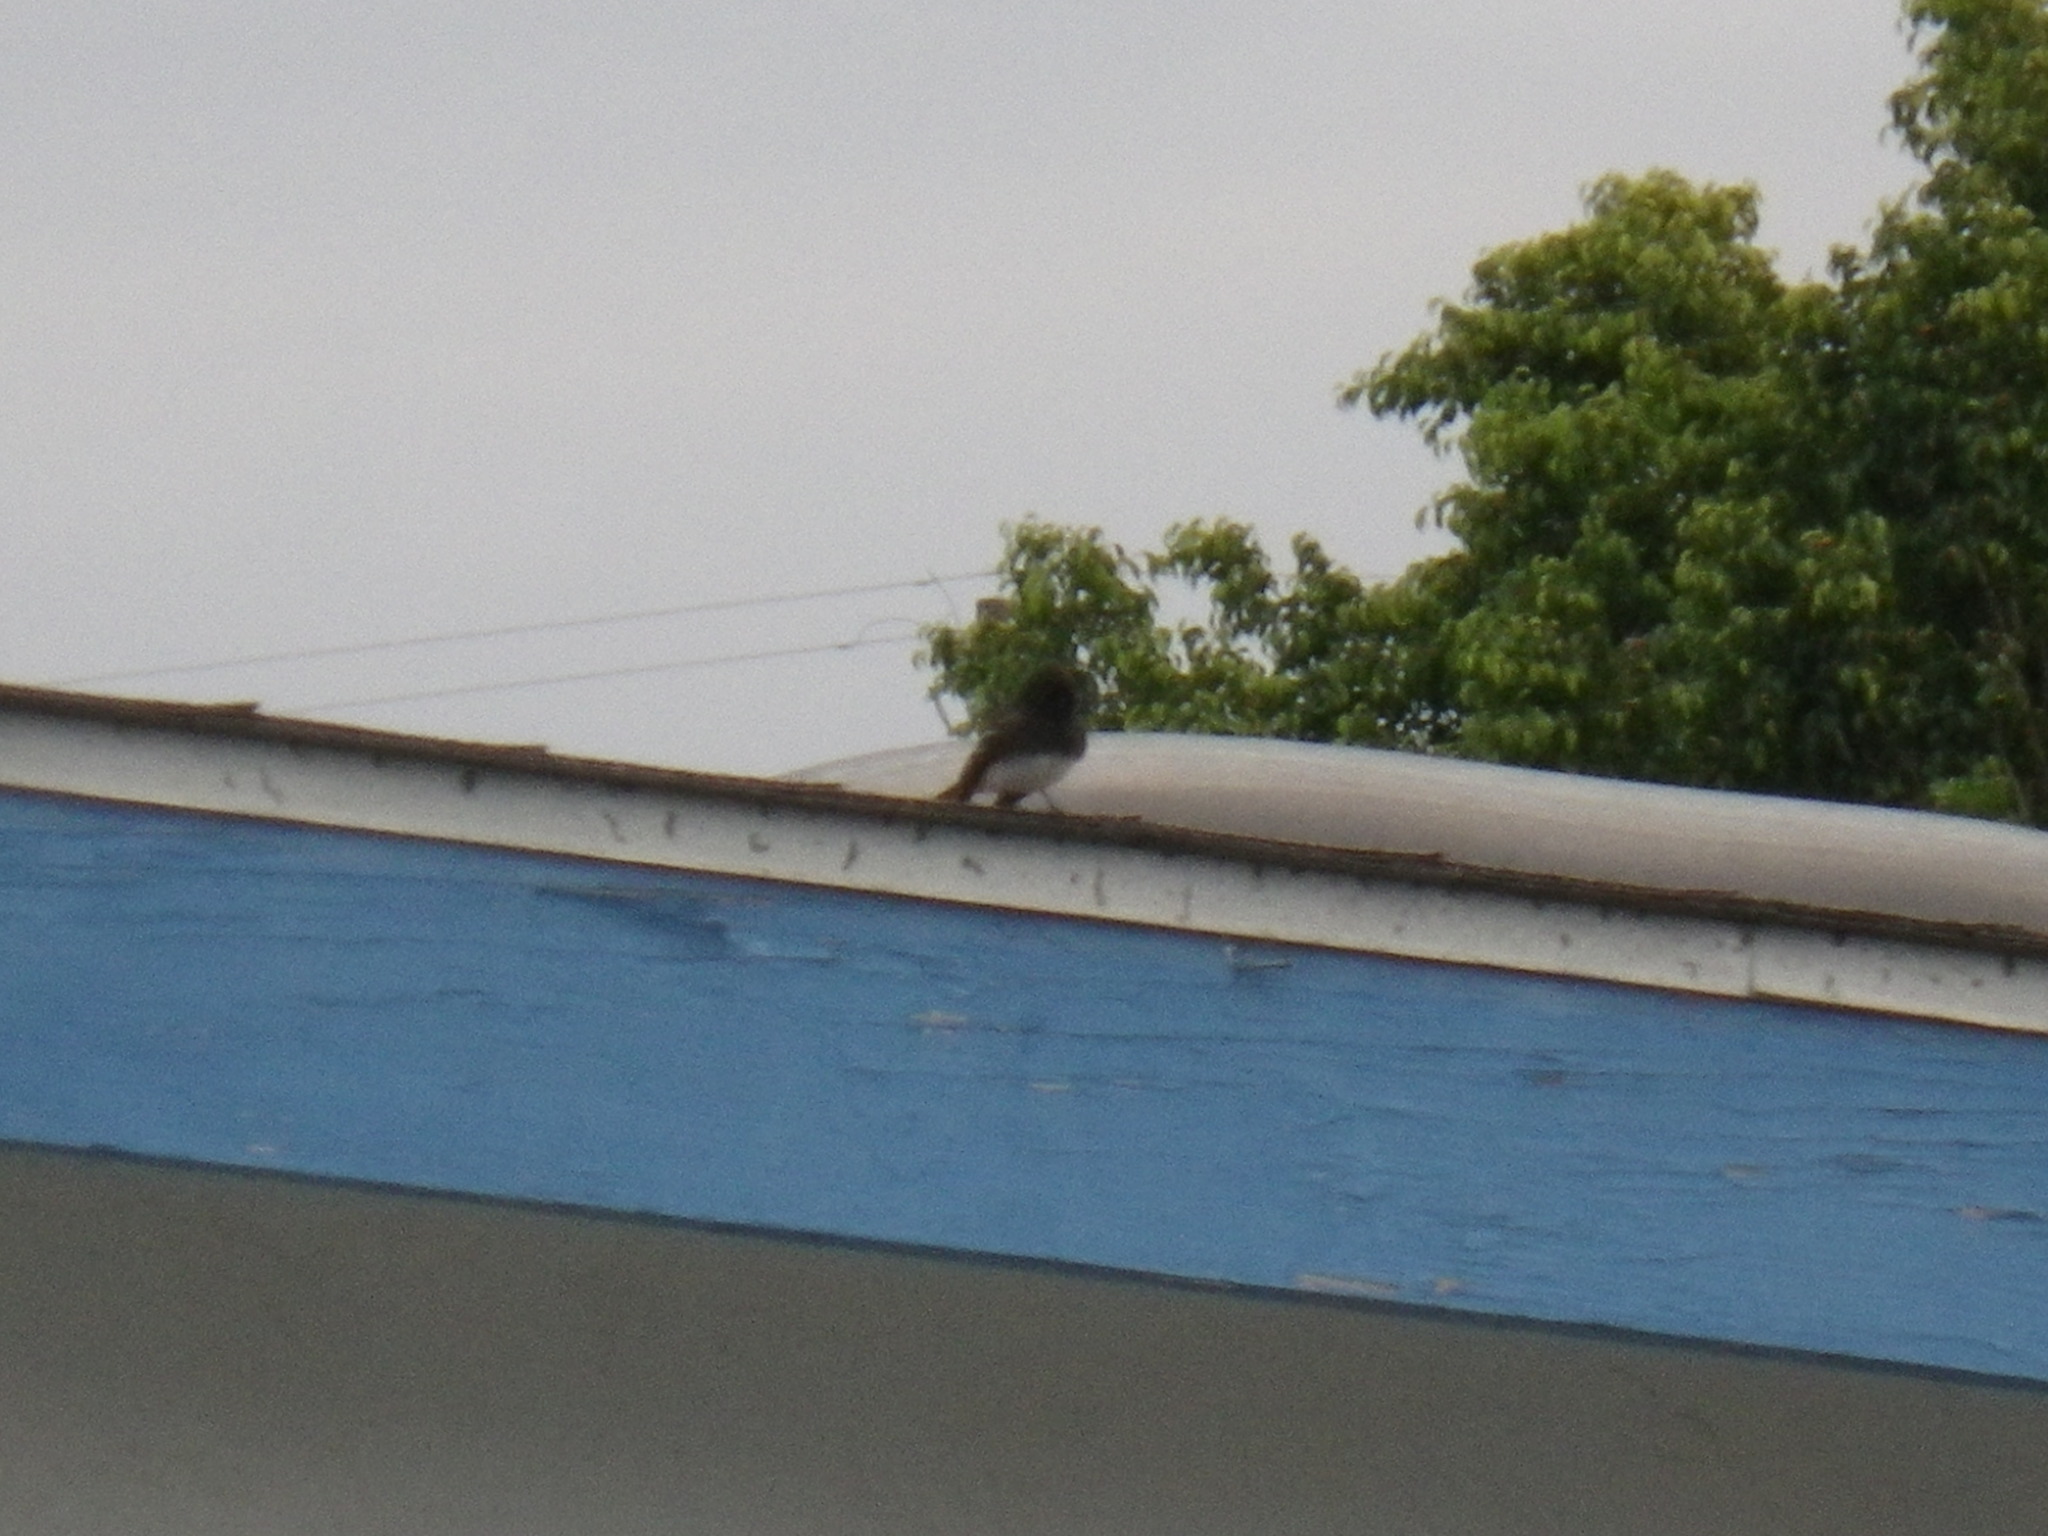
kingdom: Animalia
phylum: Chordata
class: Aves
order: Passeriformes
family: Tyrannidae
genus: Sayornis
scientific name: Sayornis nigricans
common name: Black phoebe
